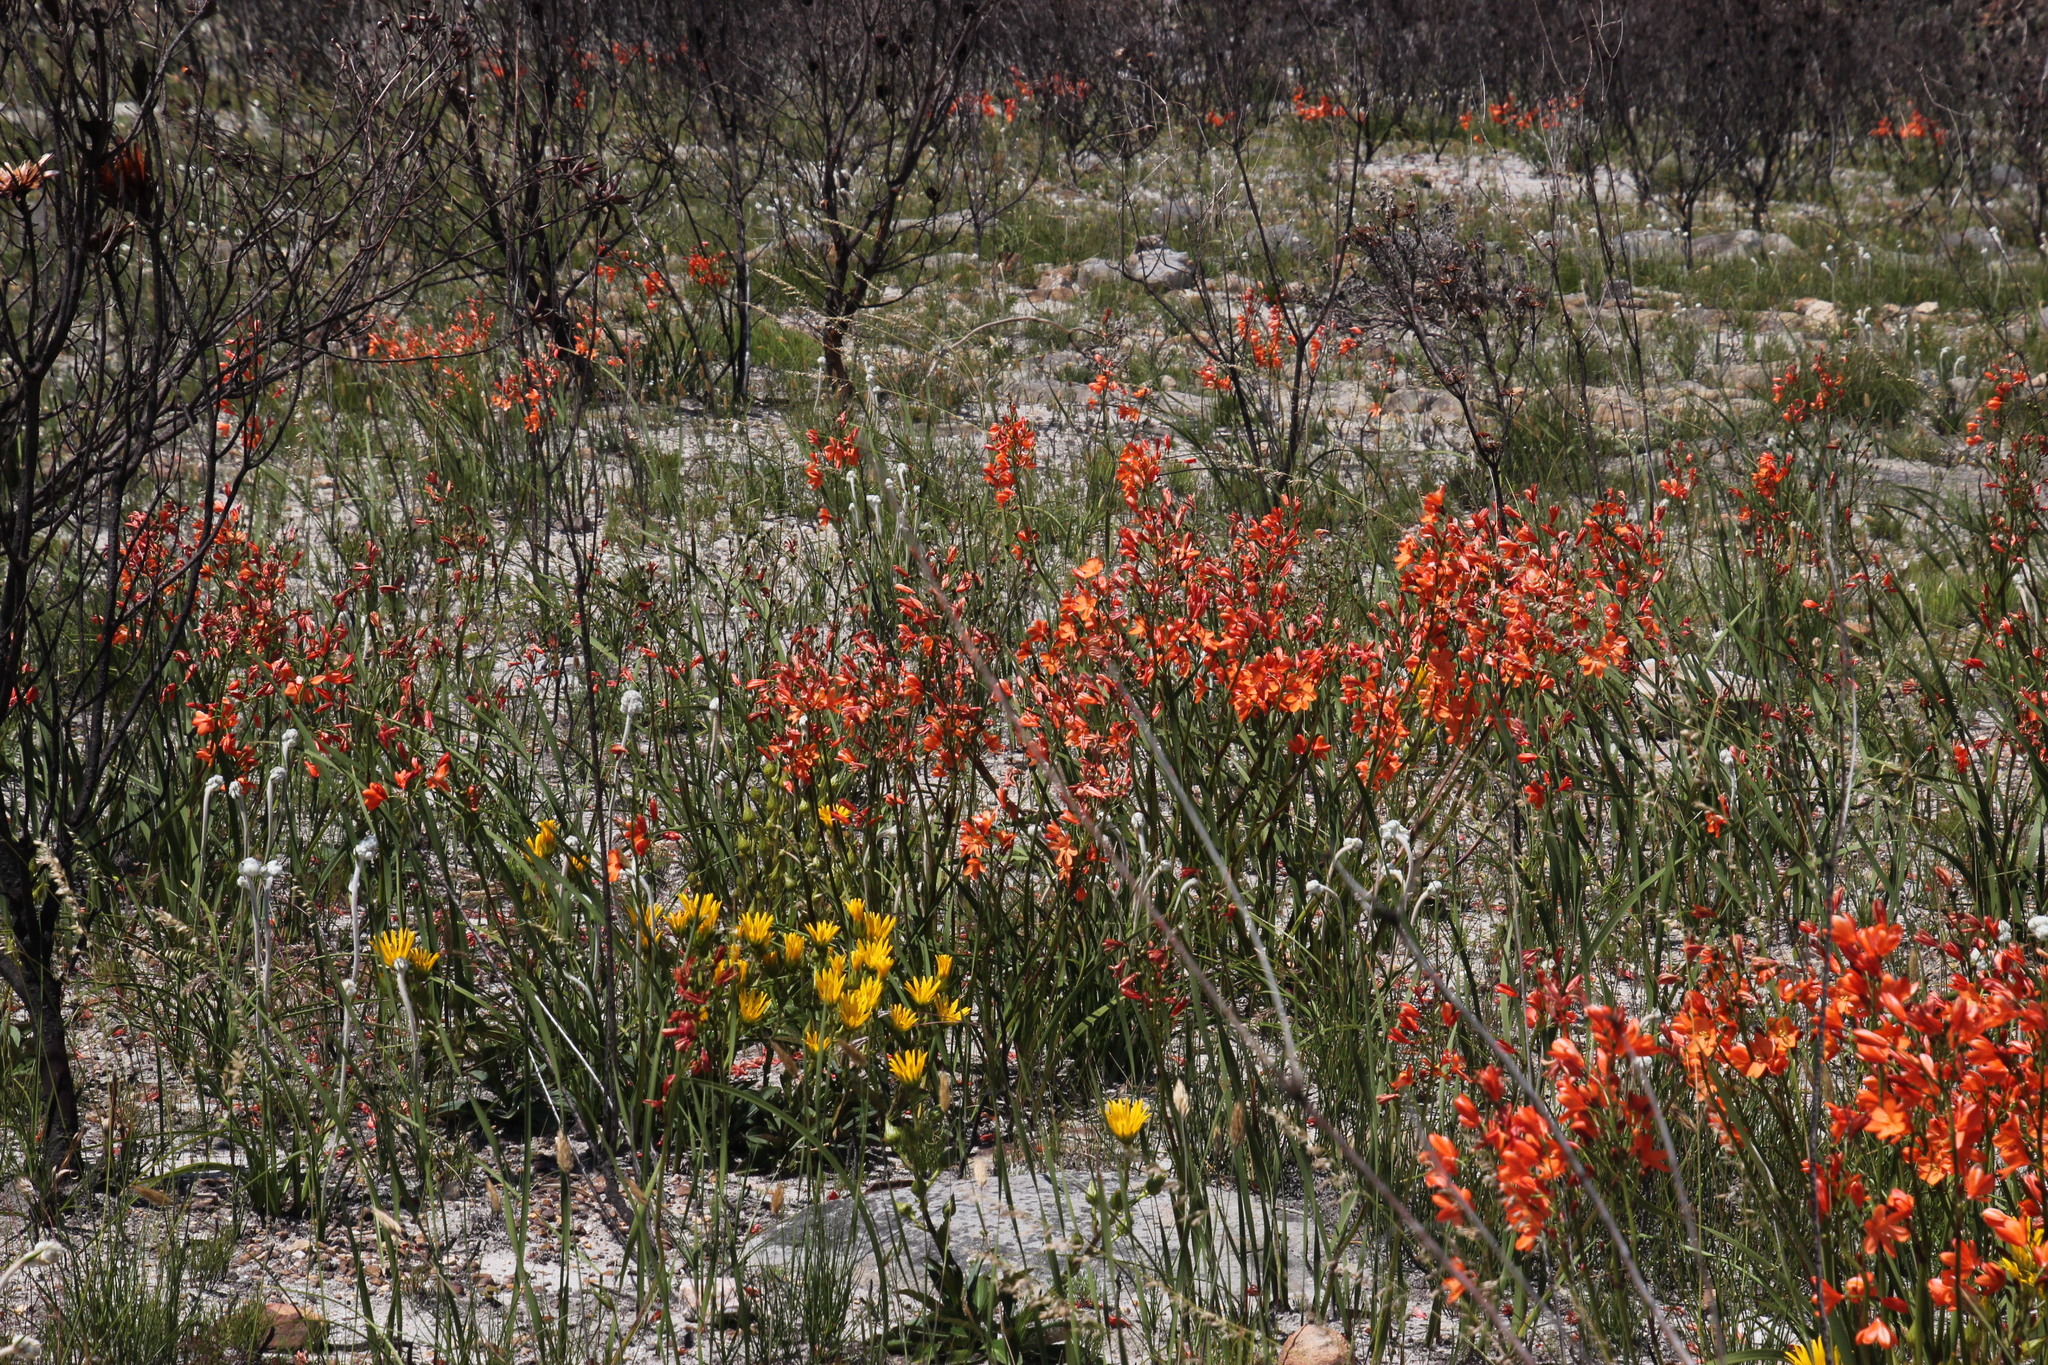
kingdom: Plantae
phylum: Tracheophyta
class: Liliopsida
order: Asparagales
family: Iridaceae
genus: Pillansia
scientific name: Pillansia templemannii
